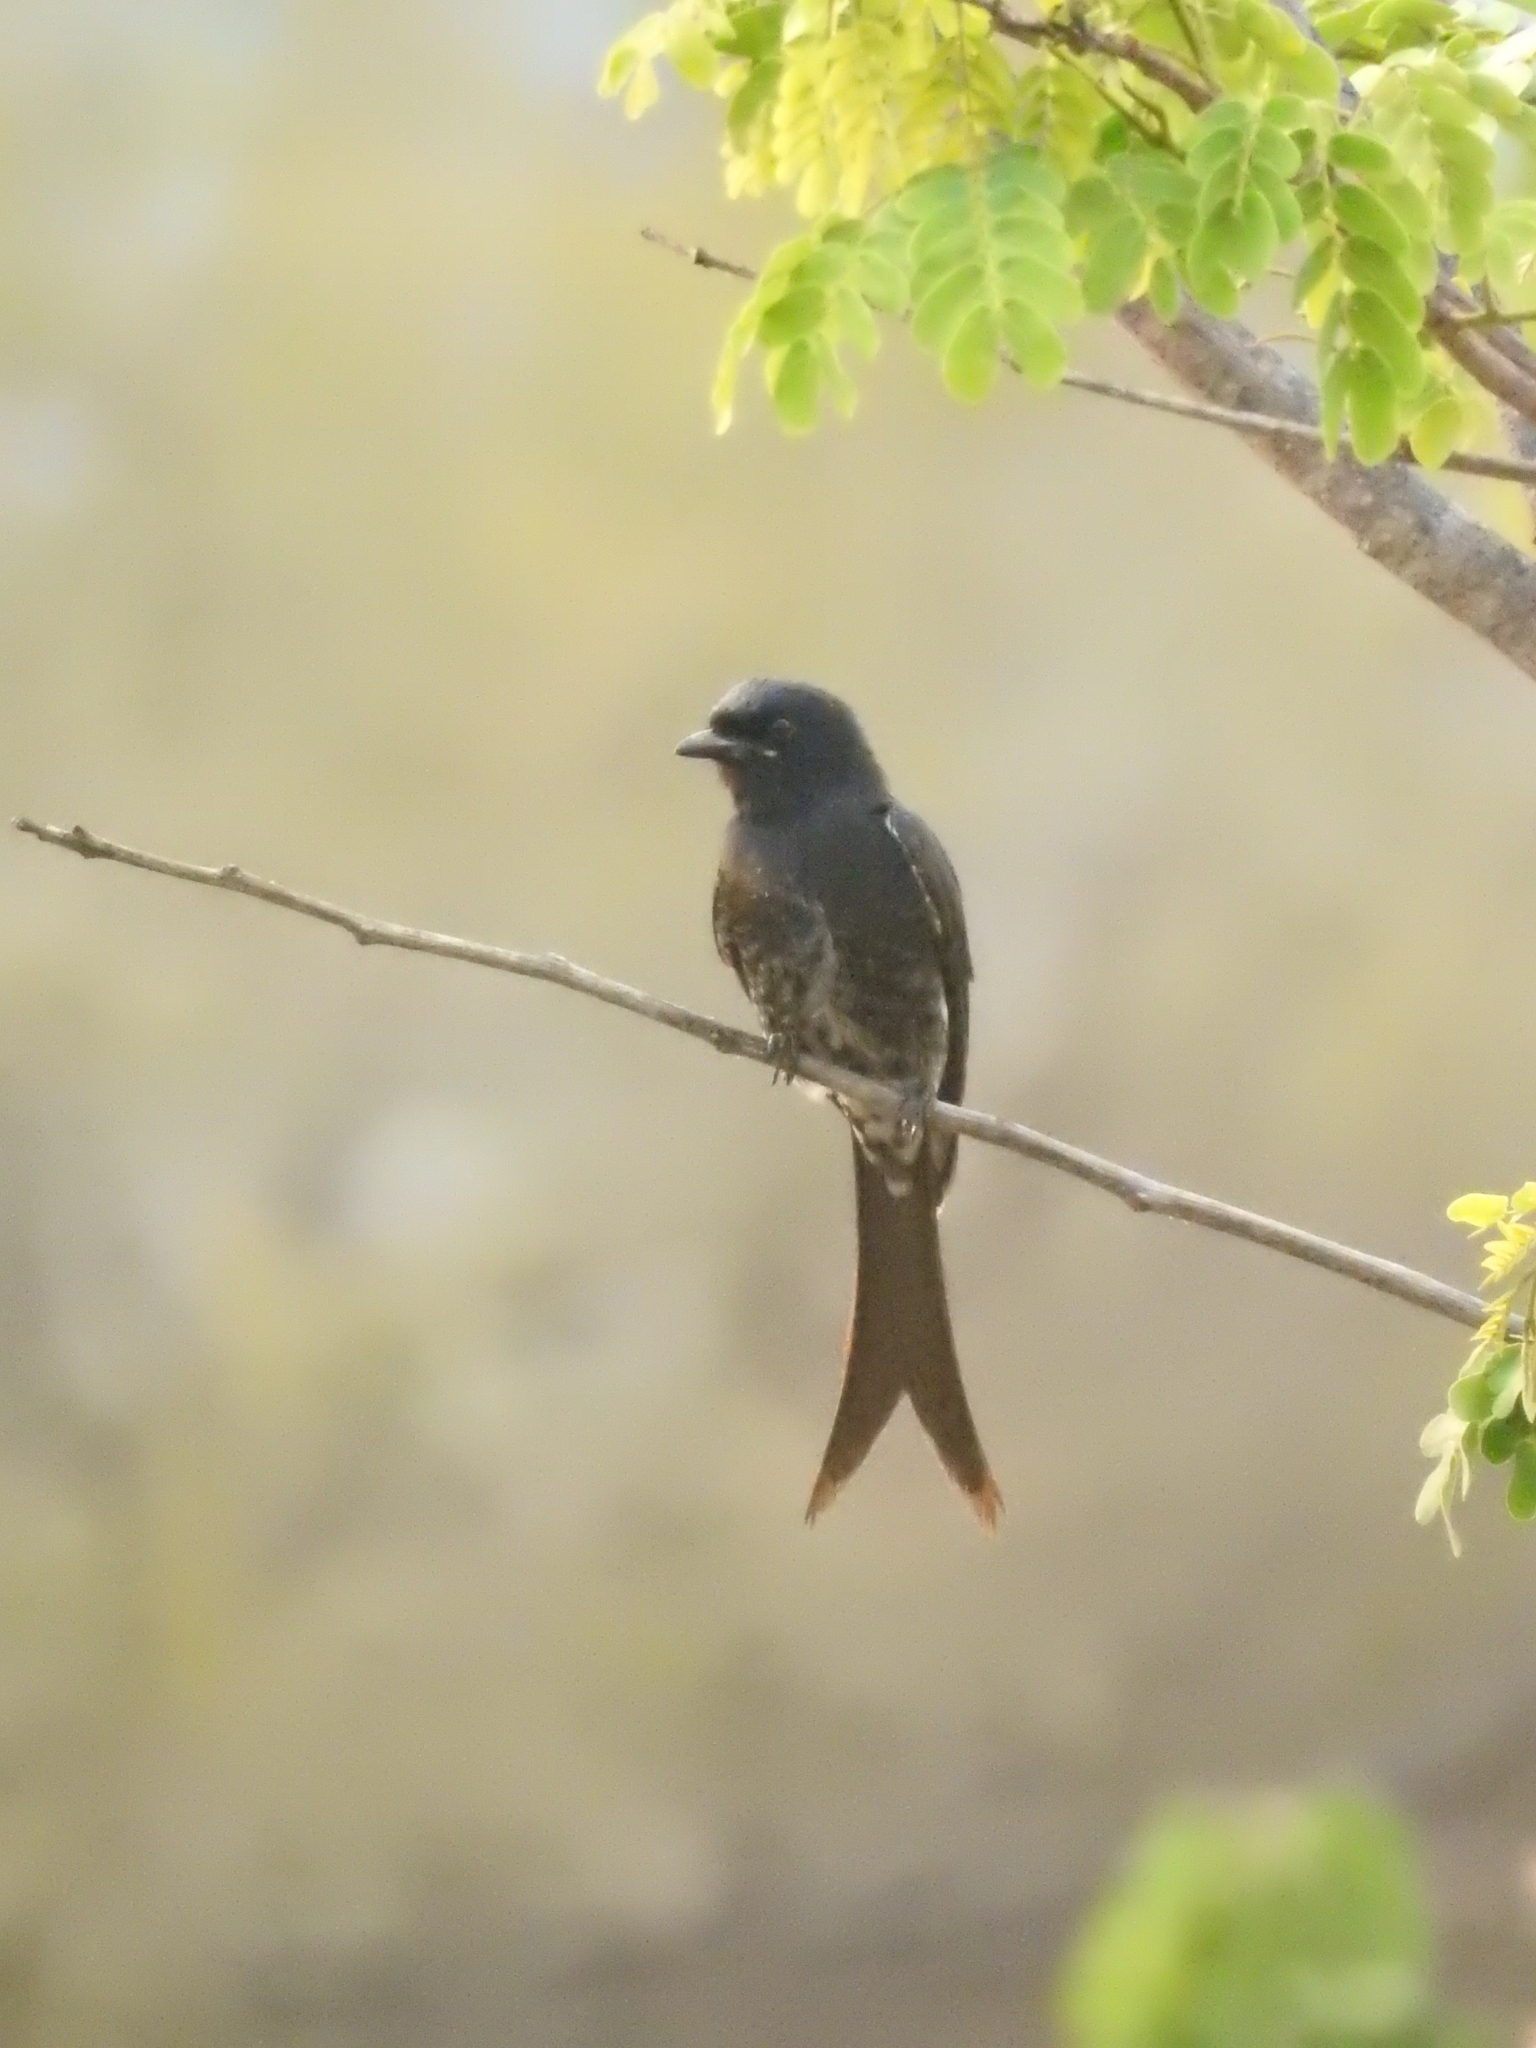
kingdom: Animalia
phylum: Chordata
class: Aves
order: Passeriformes
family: Dicruridae
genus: Dicrurus
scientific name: Dicrurus macrocercus
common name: Black drongo
